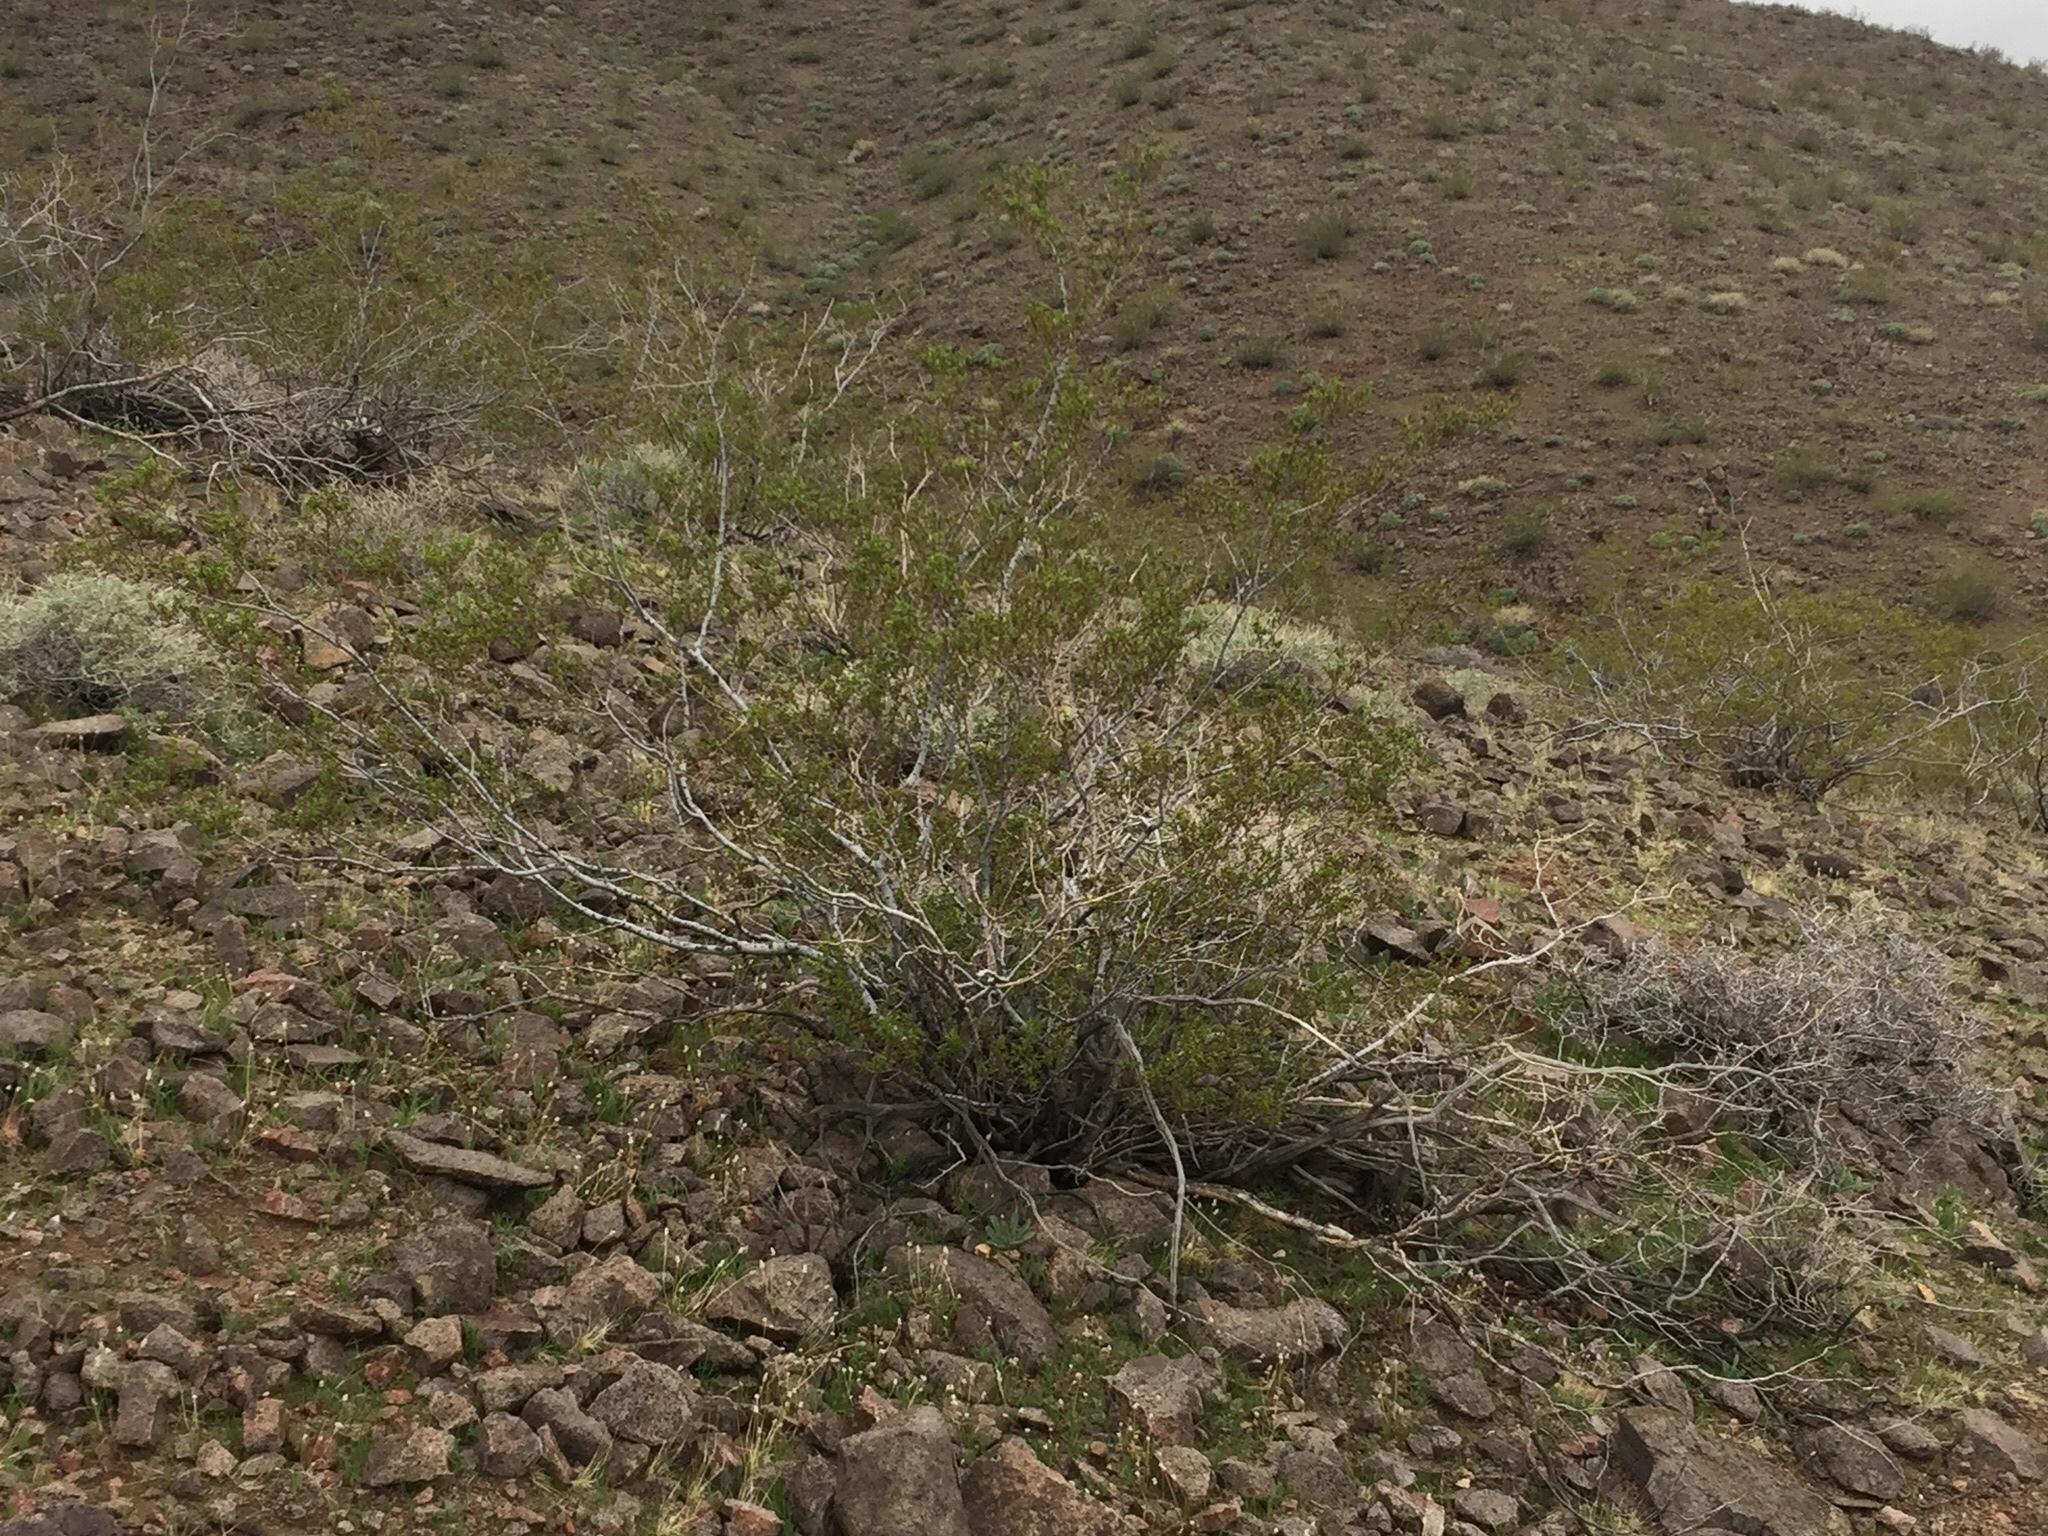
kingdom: Plantae
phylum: Tracheophyta
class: Magnoliopsida
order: Zygophyllales
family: Zygophyllaceae
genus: Larrea
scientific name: Larrea tridentata
